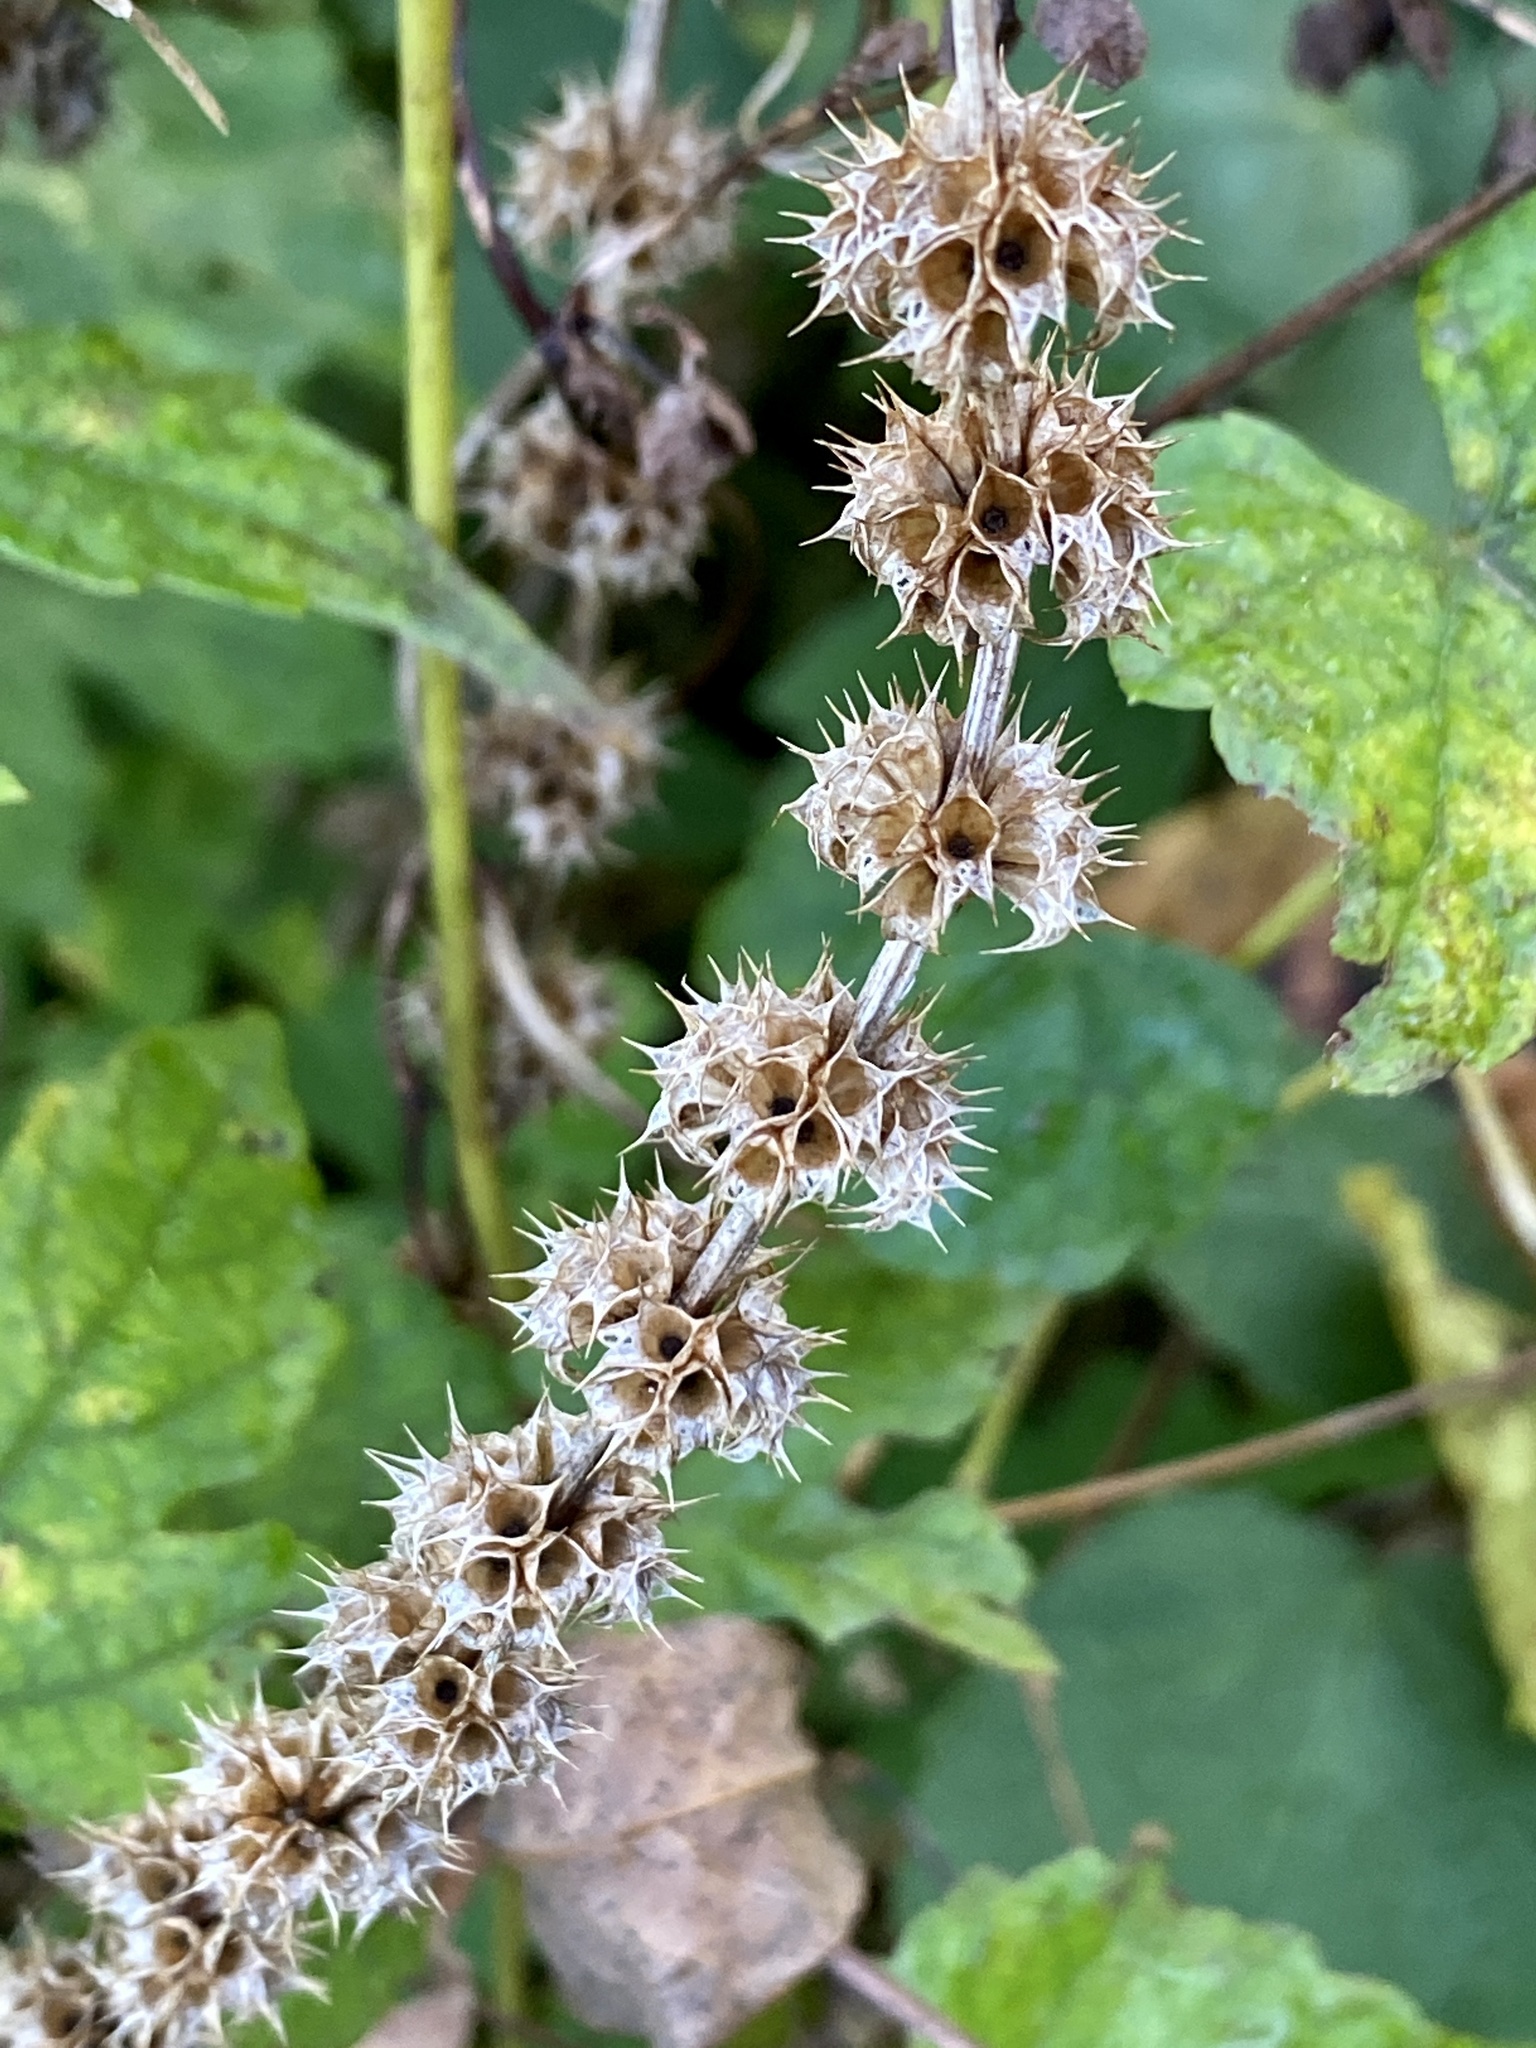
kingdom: Plantae
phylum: Tracheophyta
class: Magnoliopsida
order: Lamiales
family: Lamiaceae
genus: Leonurus
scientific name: Leonurus cardiaca
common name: Motherwort
